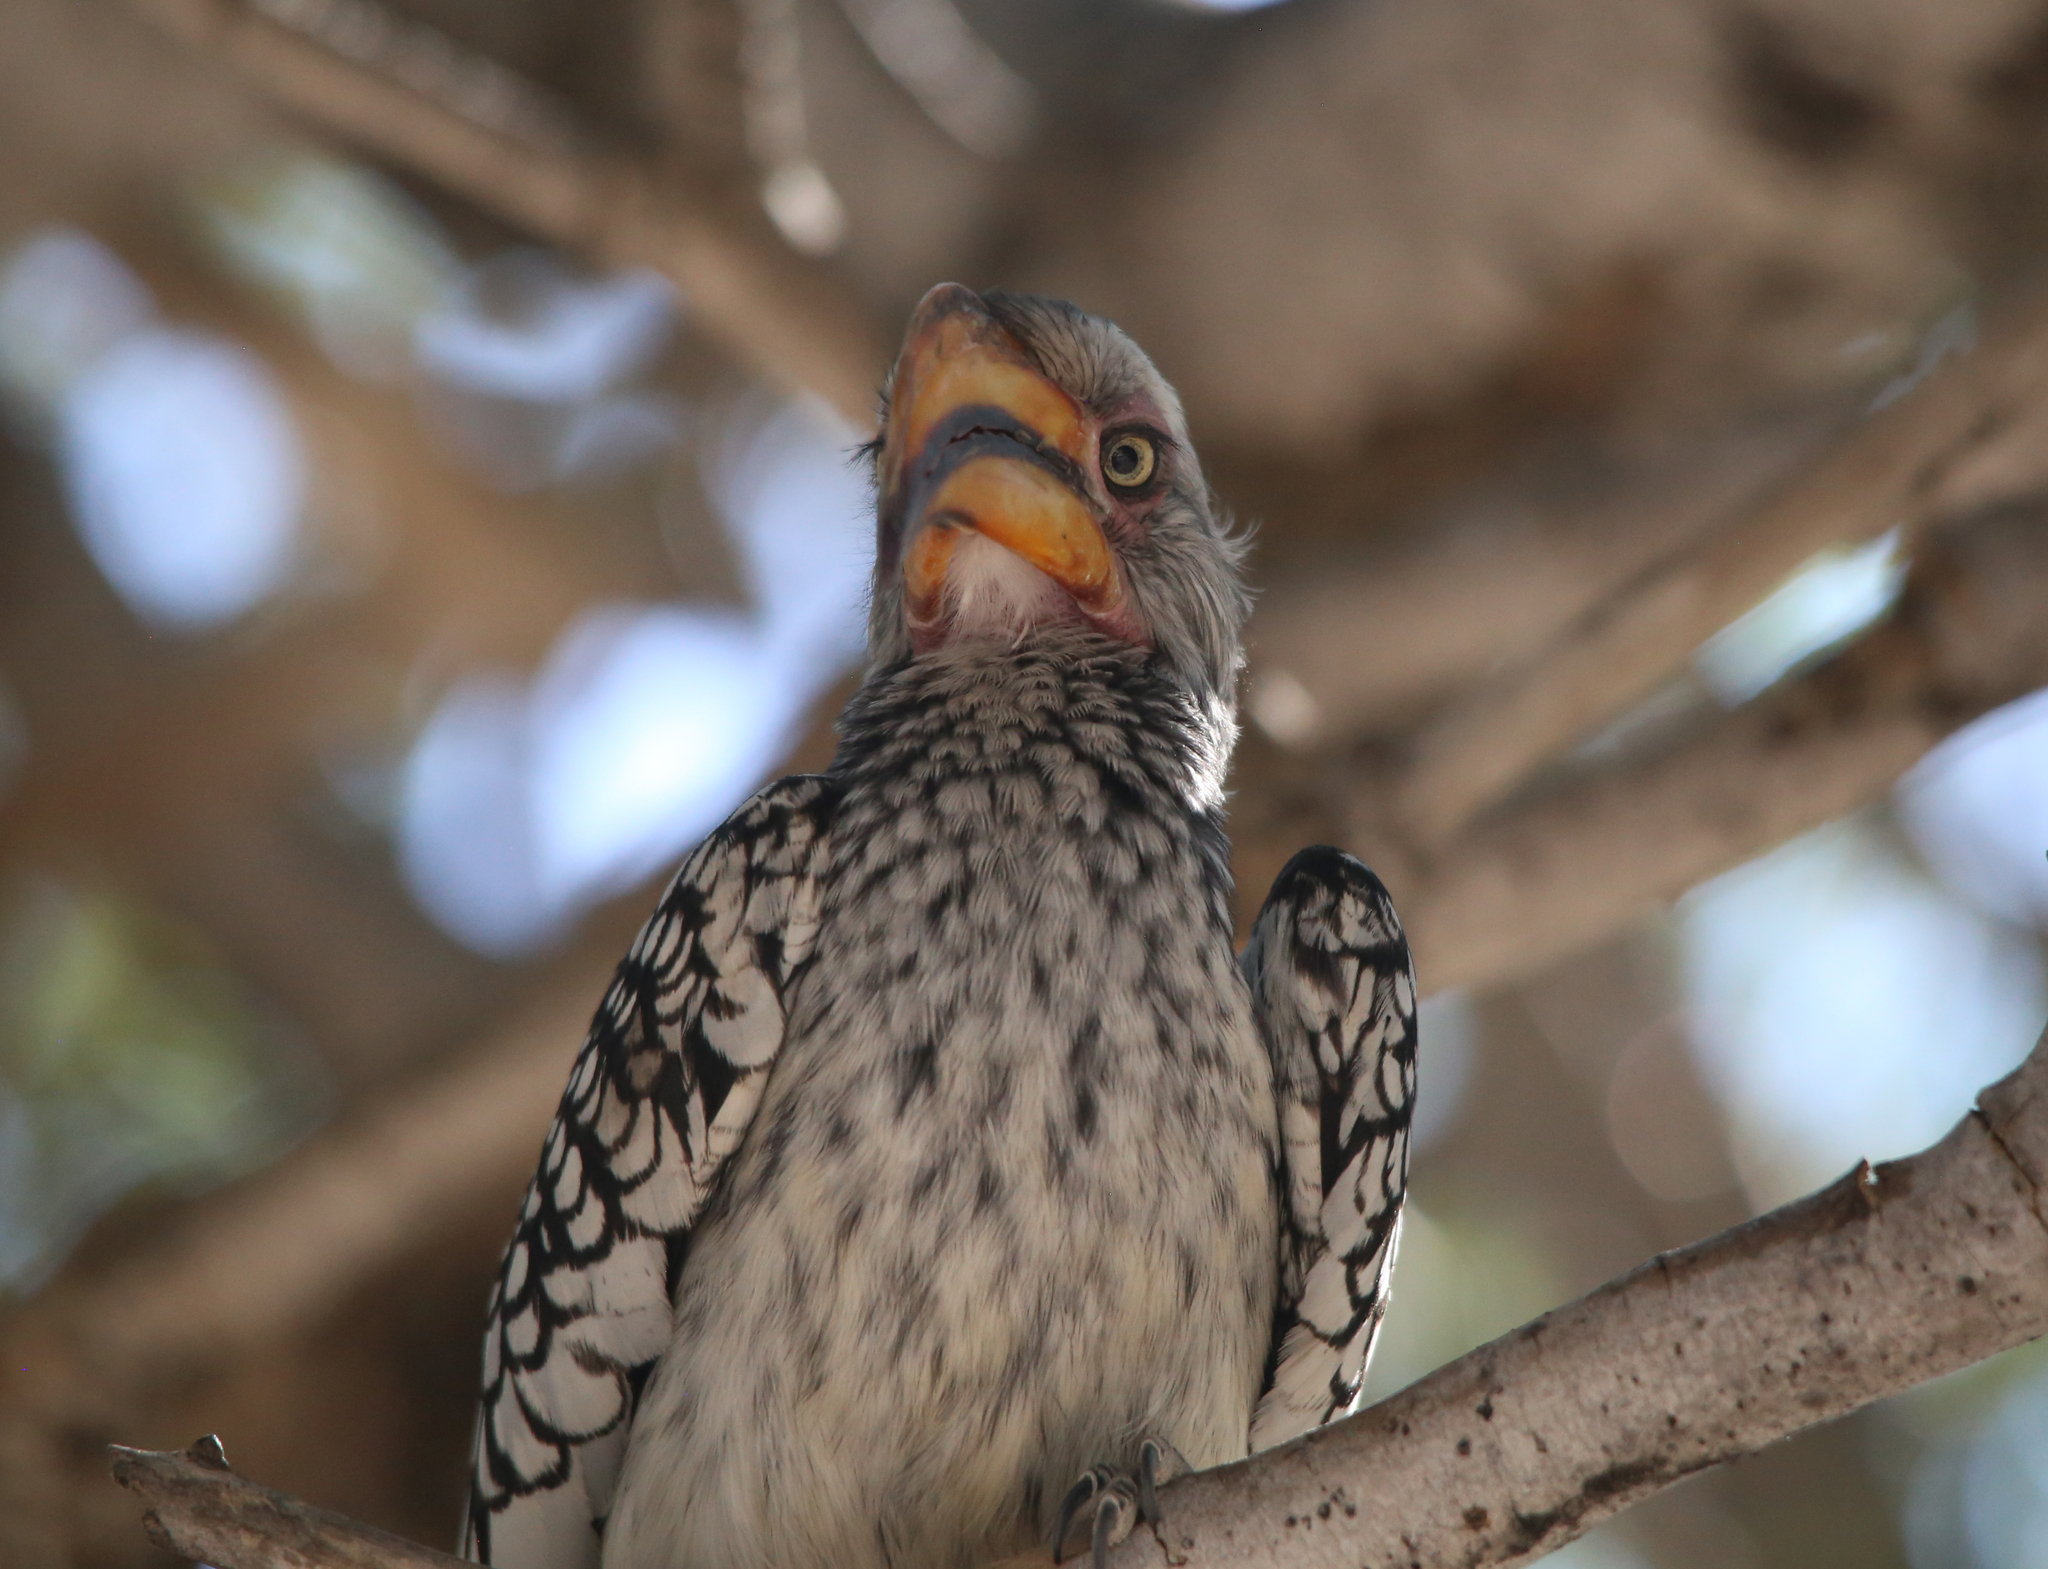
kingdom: Animalia
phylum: Chordata
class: Aves
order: Bucerotiformes
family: Bucerotidae
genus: Tockus
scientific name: Tockus leucomelas
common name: Southern yellow-billed hornbill
